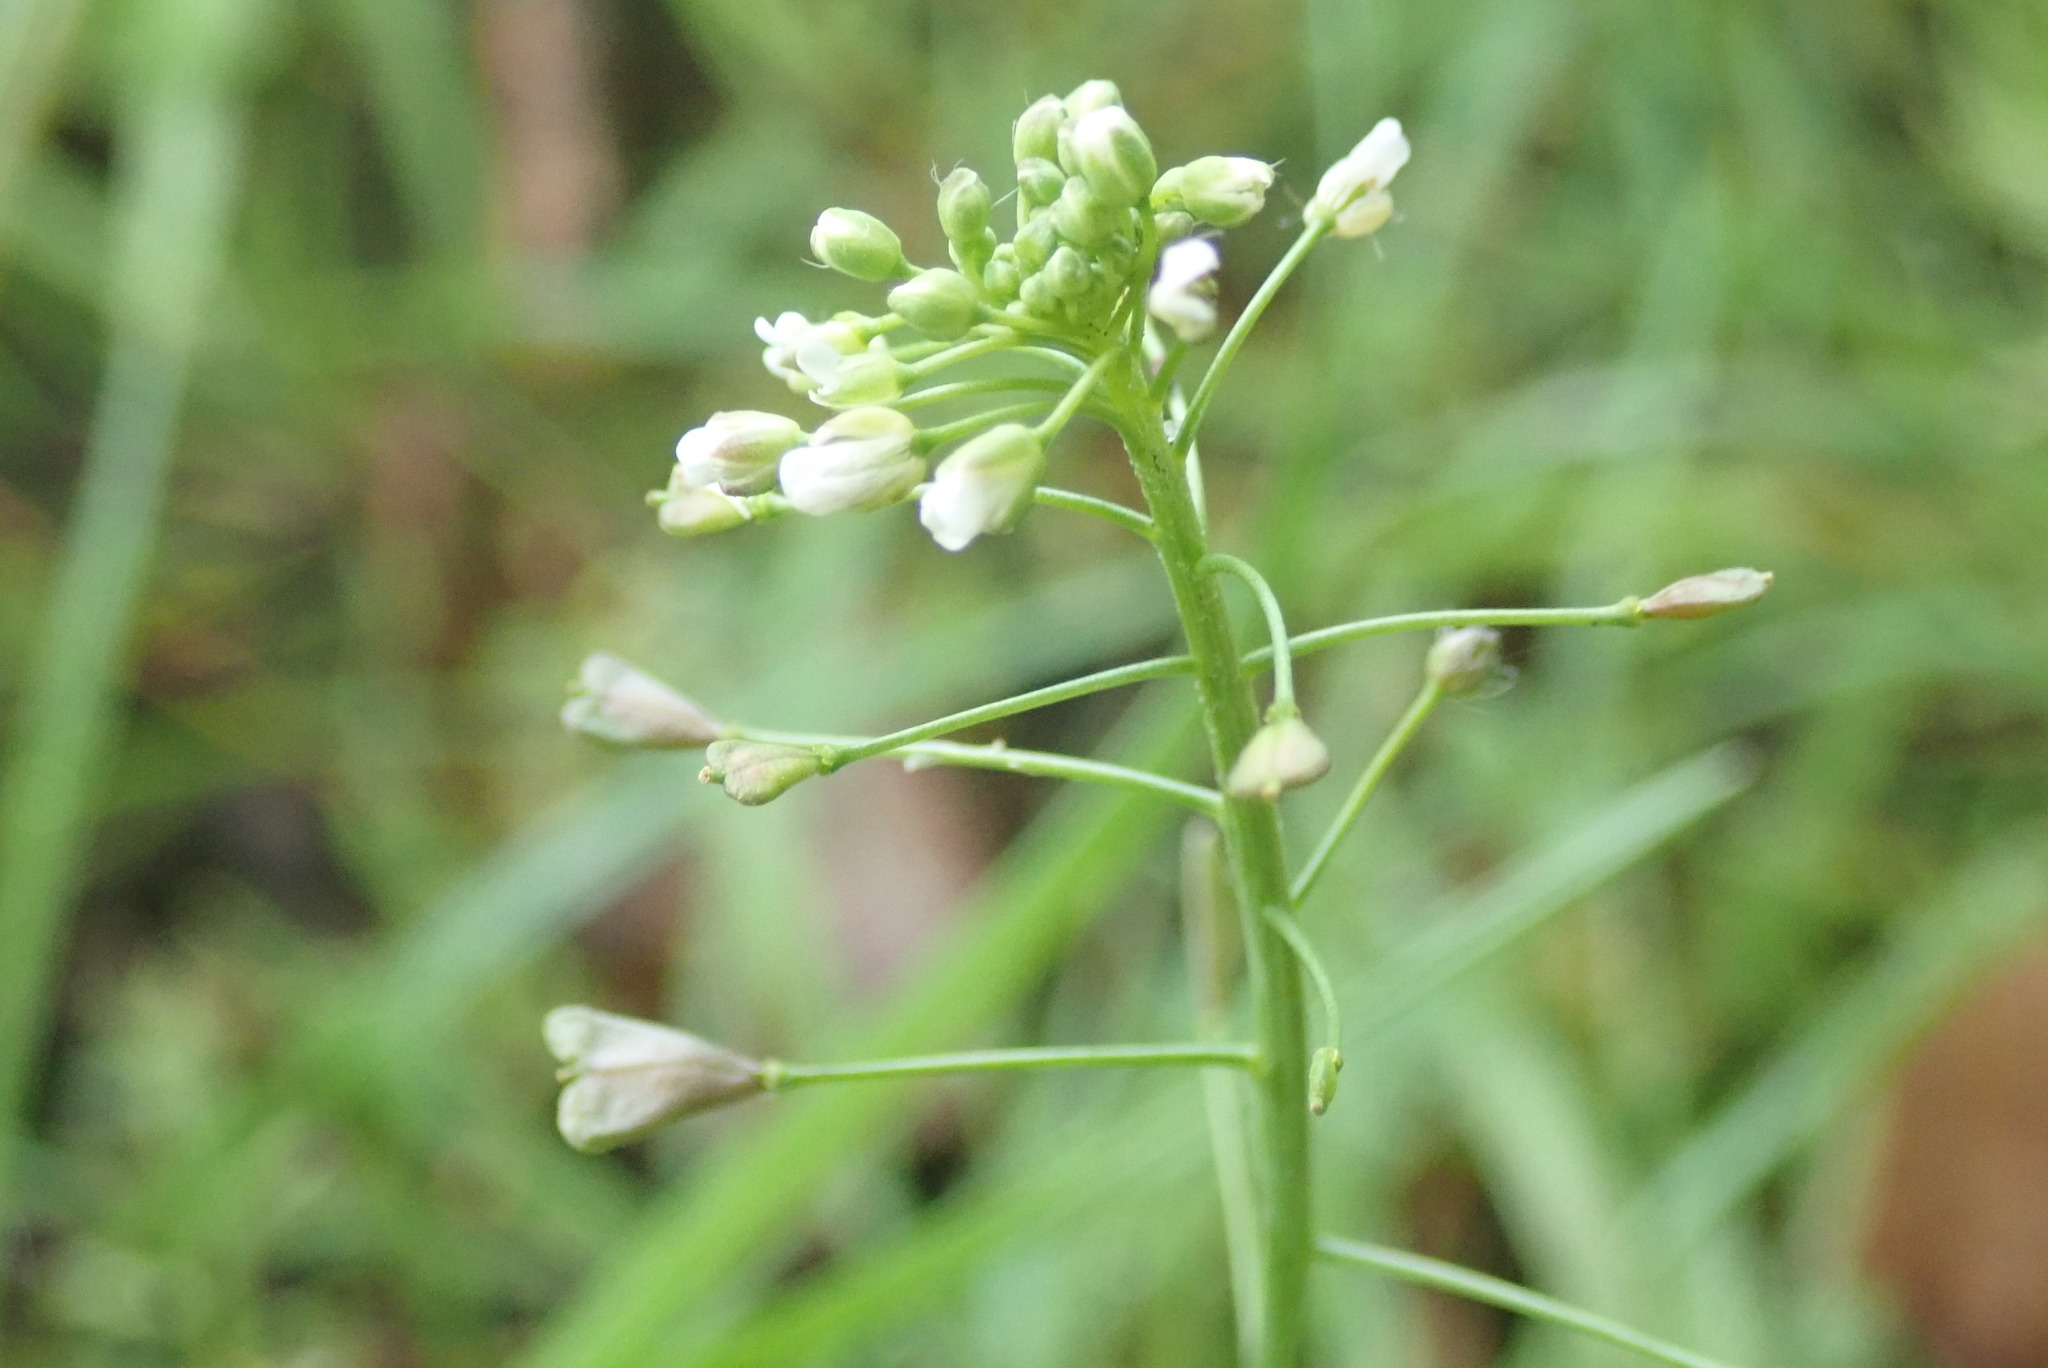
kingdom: Plantae
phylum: Tracheophyta
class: Magnoliopsida
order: Brassicales
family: Brassicaceae
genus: Capsella
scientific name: Capsella bursa-pastoris
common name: Shepherd's purse
